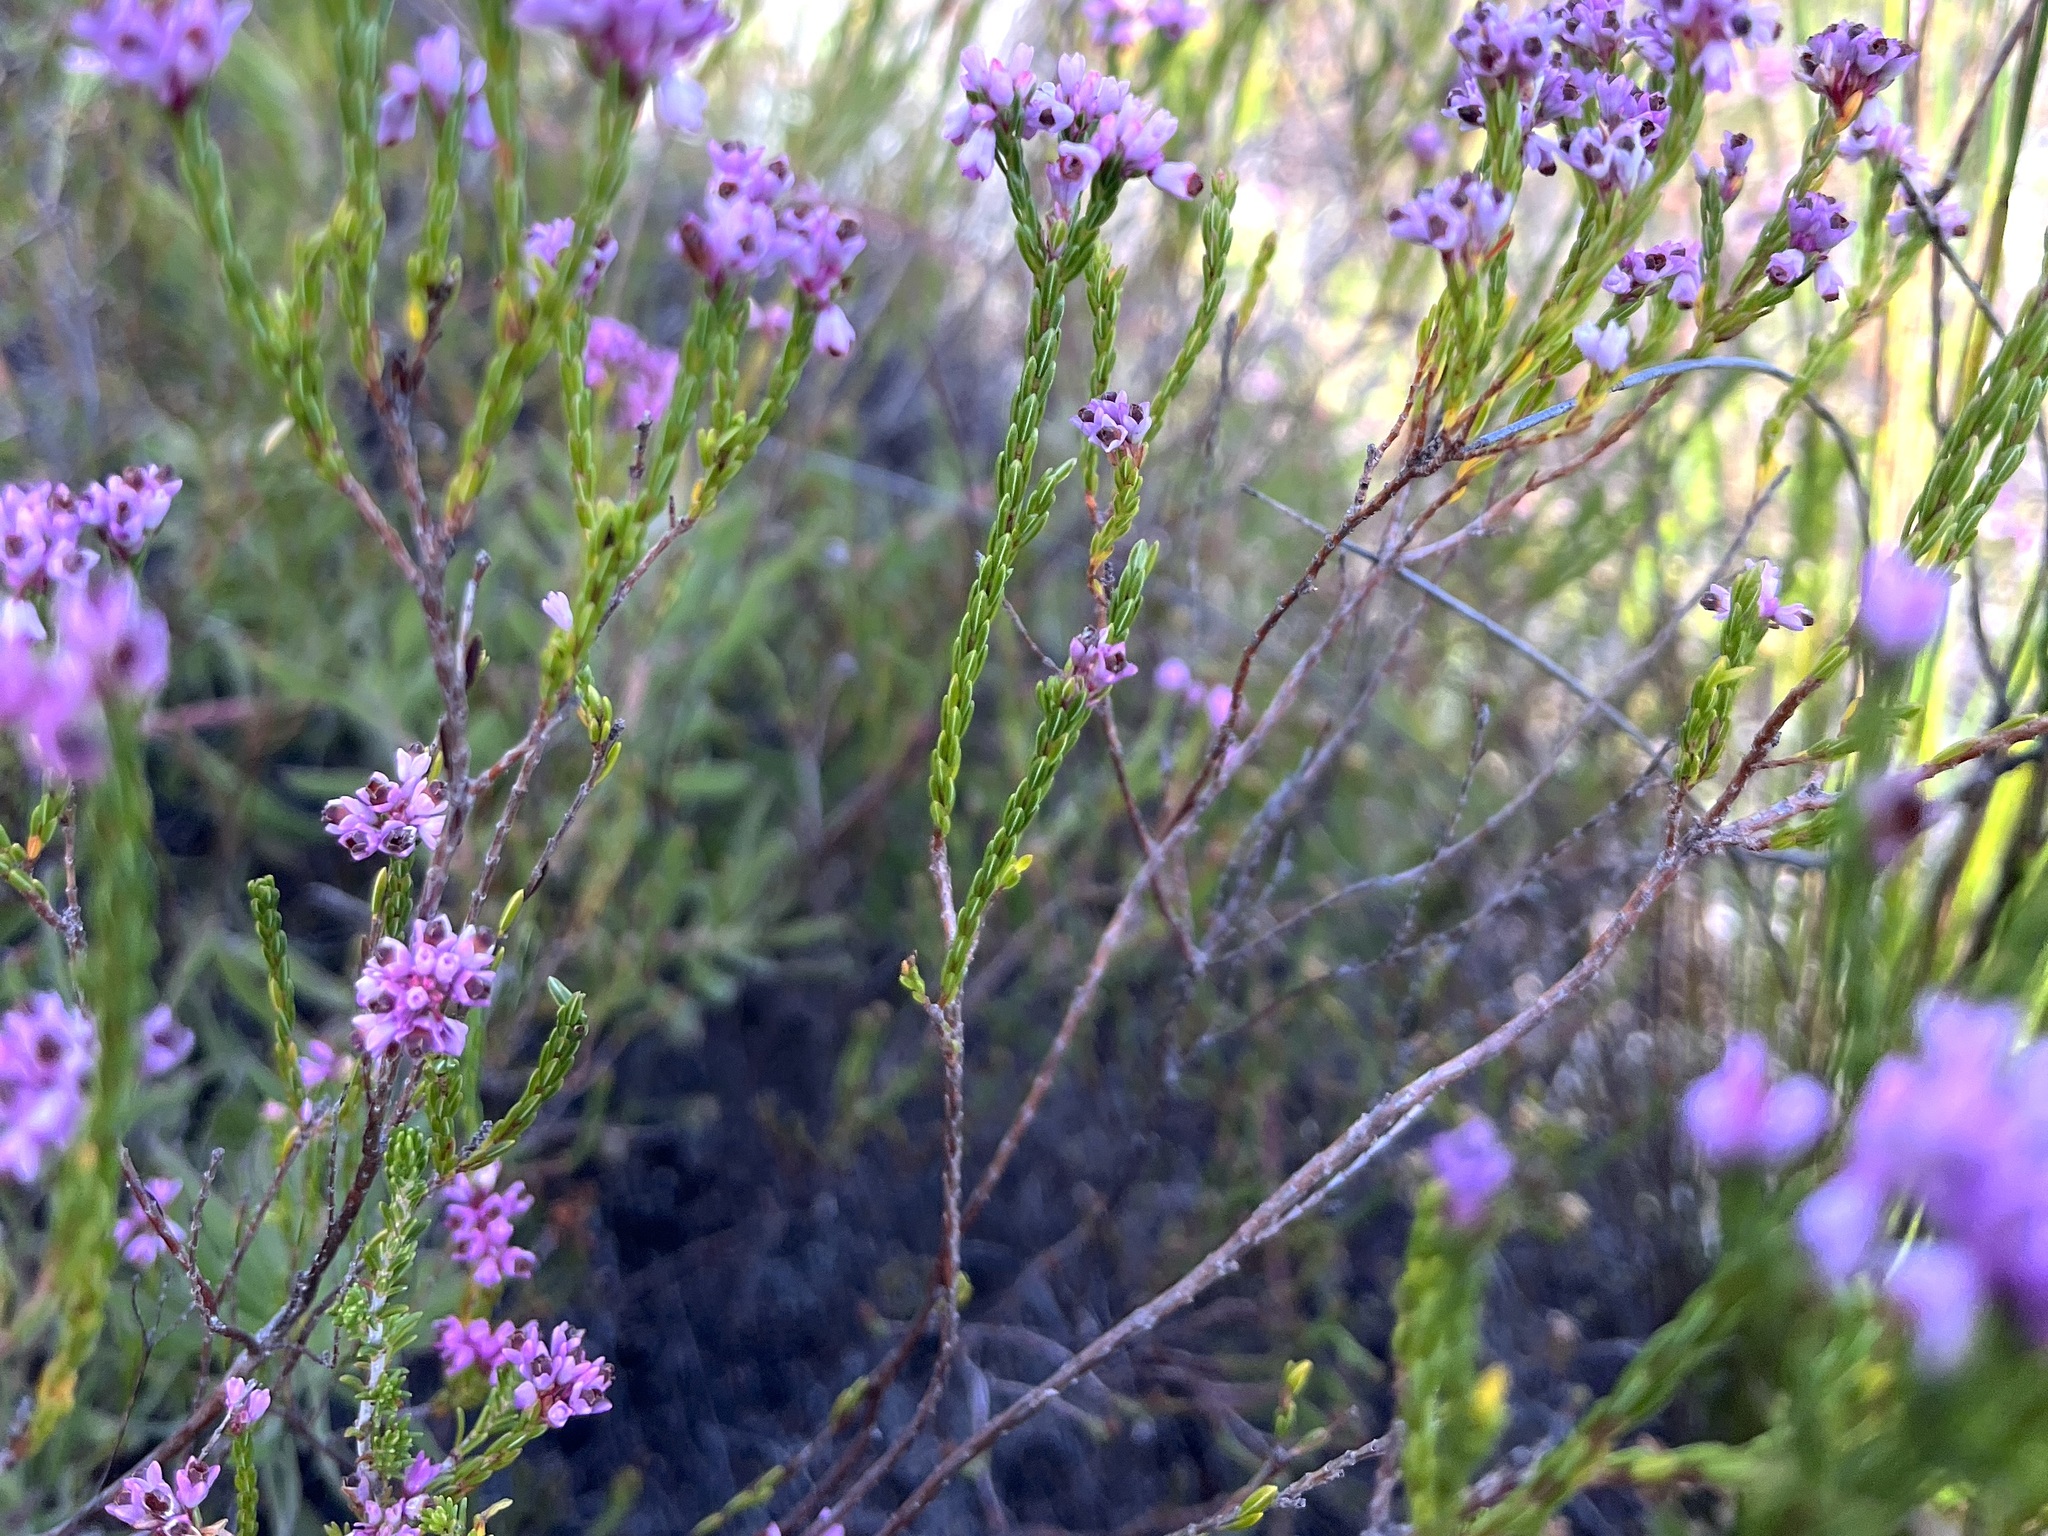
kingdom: Plantae
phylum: Tracheophyta
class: Magnoliopsida
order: Ericales
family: Ericaceae
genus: Erica
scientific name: Erica corifolia
